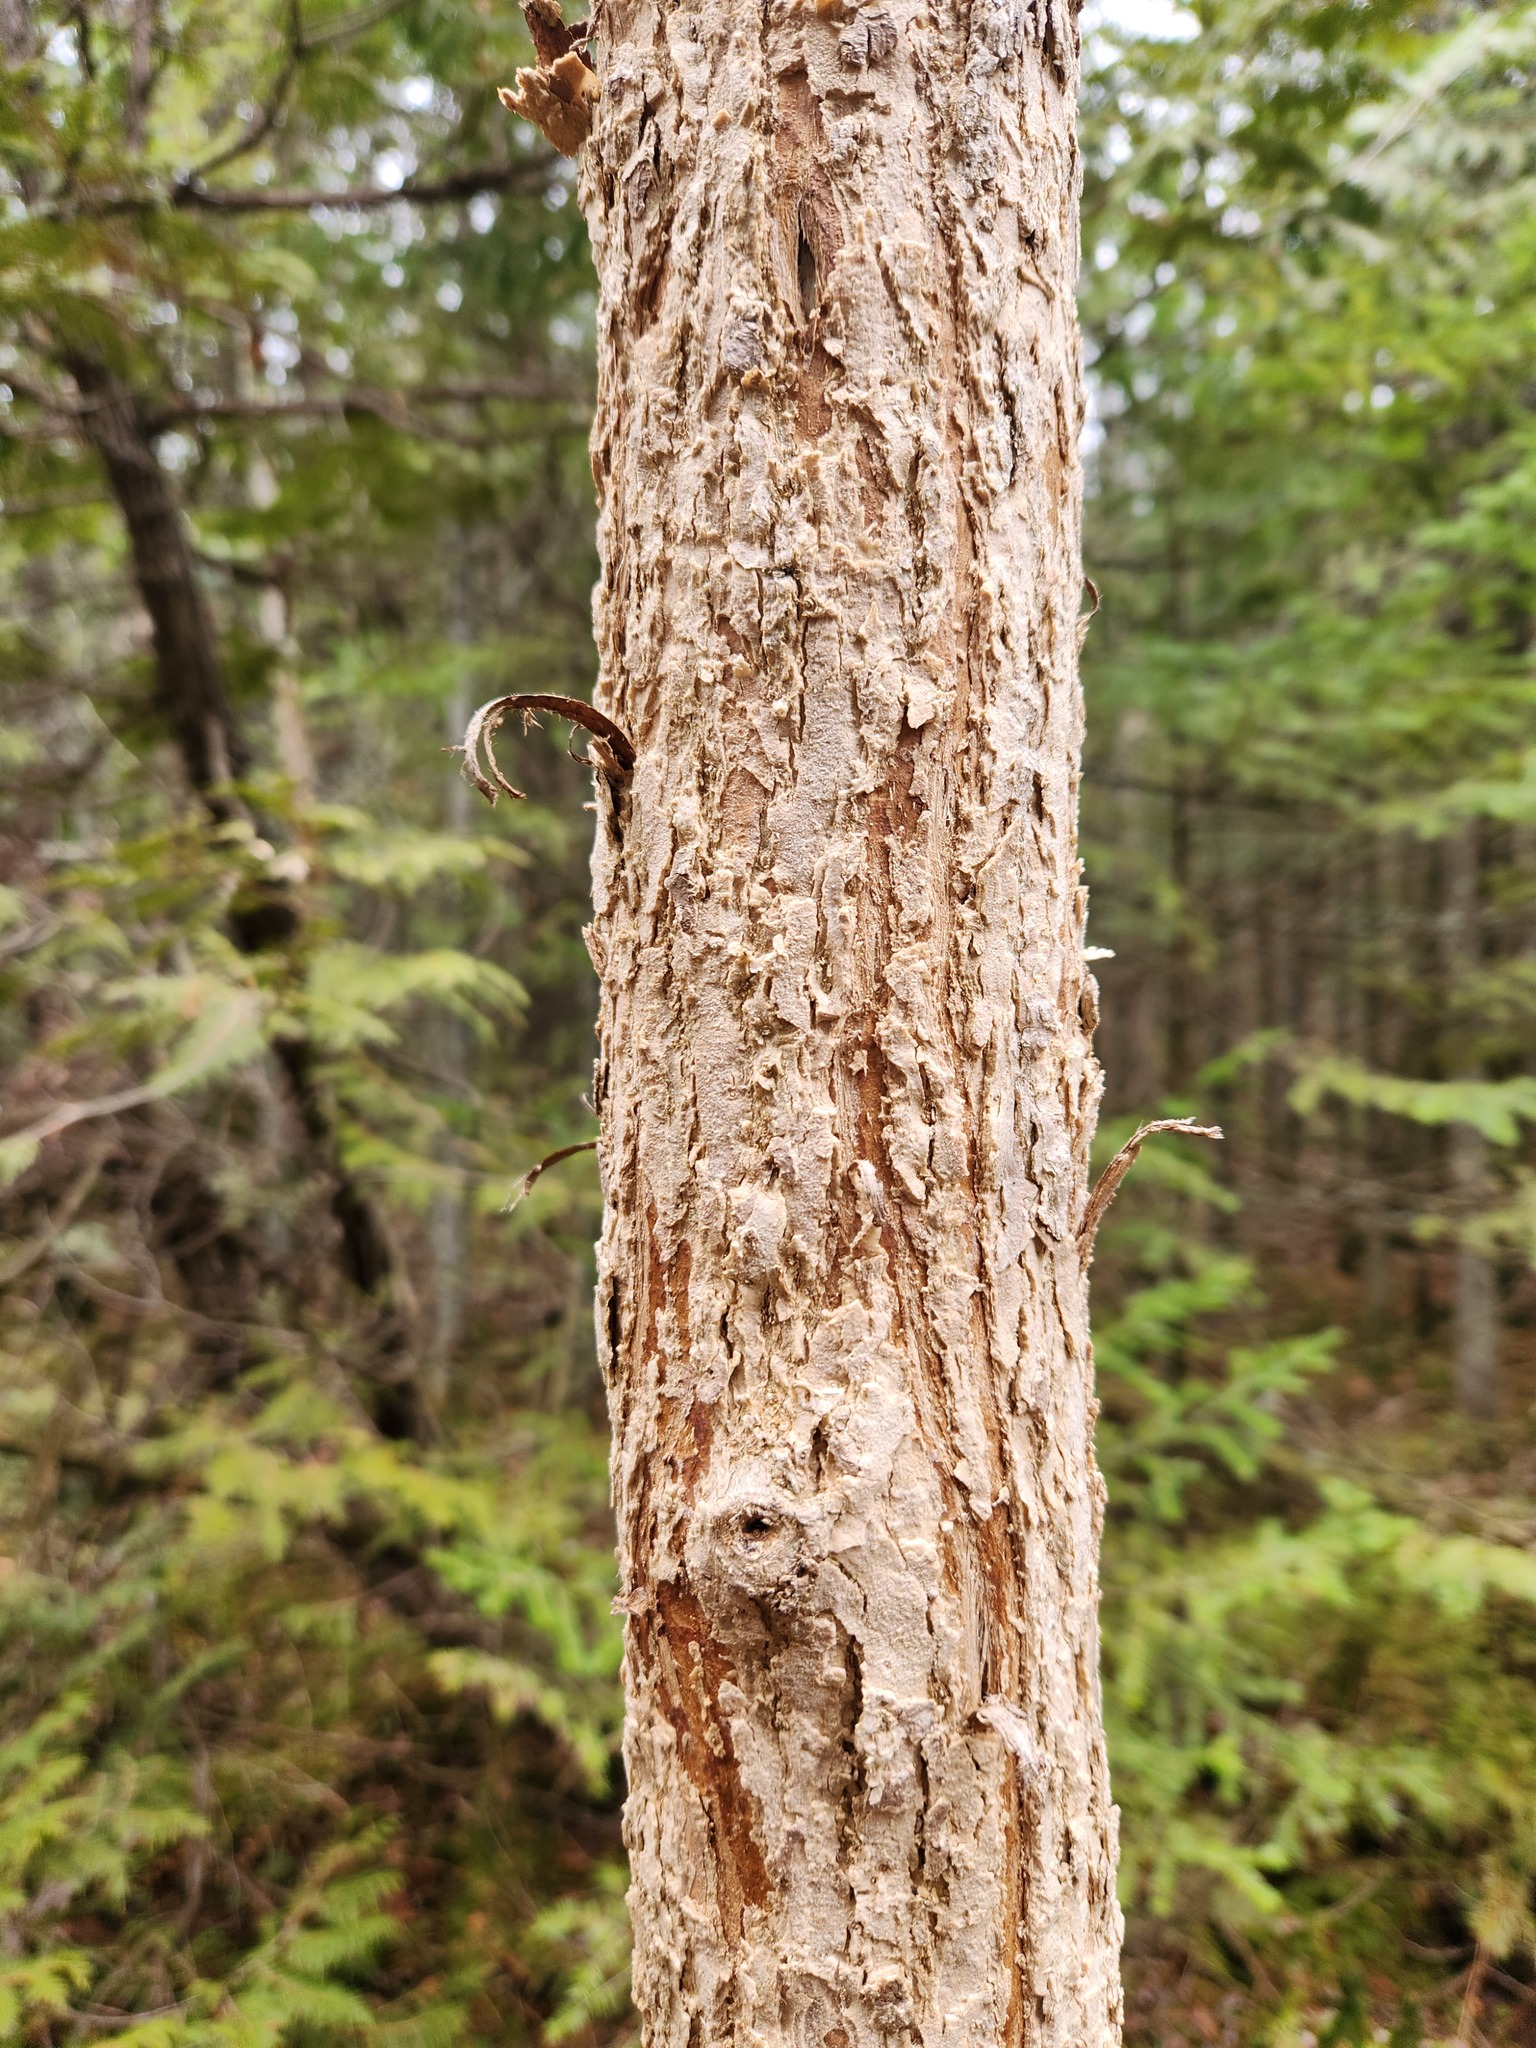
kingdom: Plantae
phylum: Tracheophyta
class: Magnoliopsida
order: Lamiales
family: Oleaceae
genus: Fraxinus
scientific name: Fraxinus nigra
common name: Black ash
